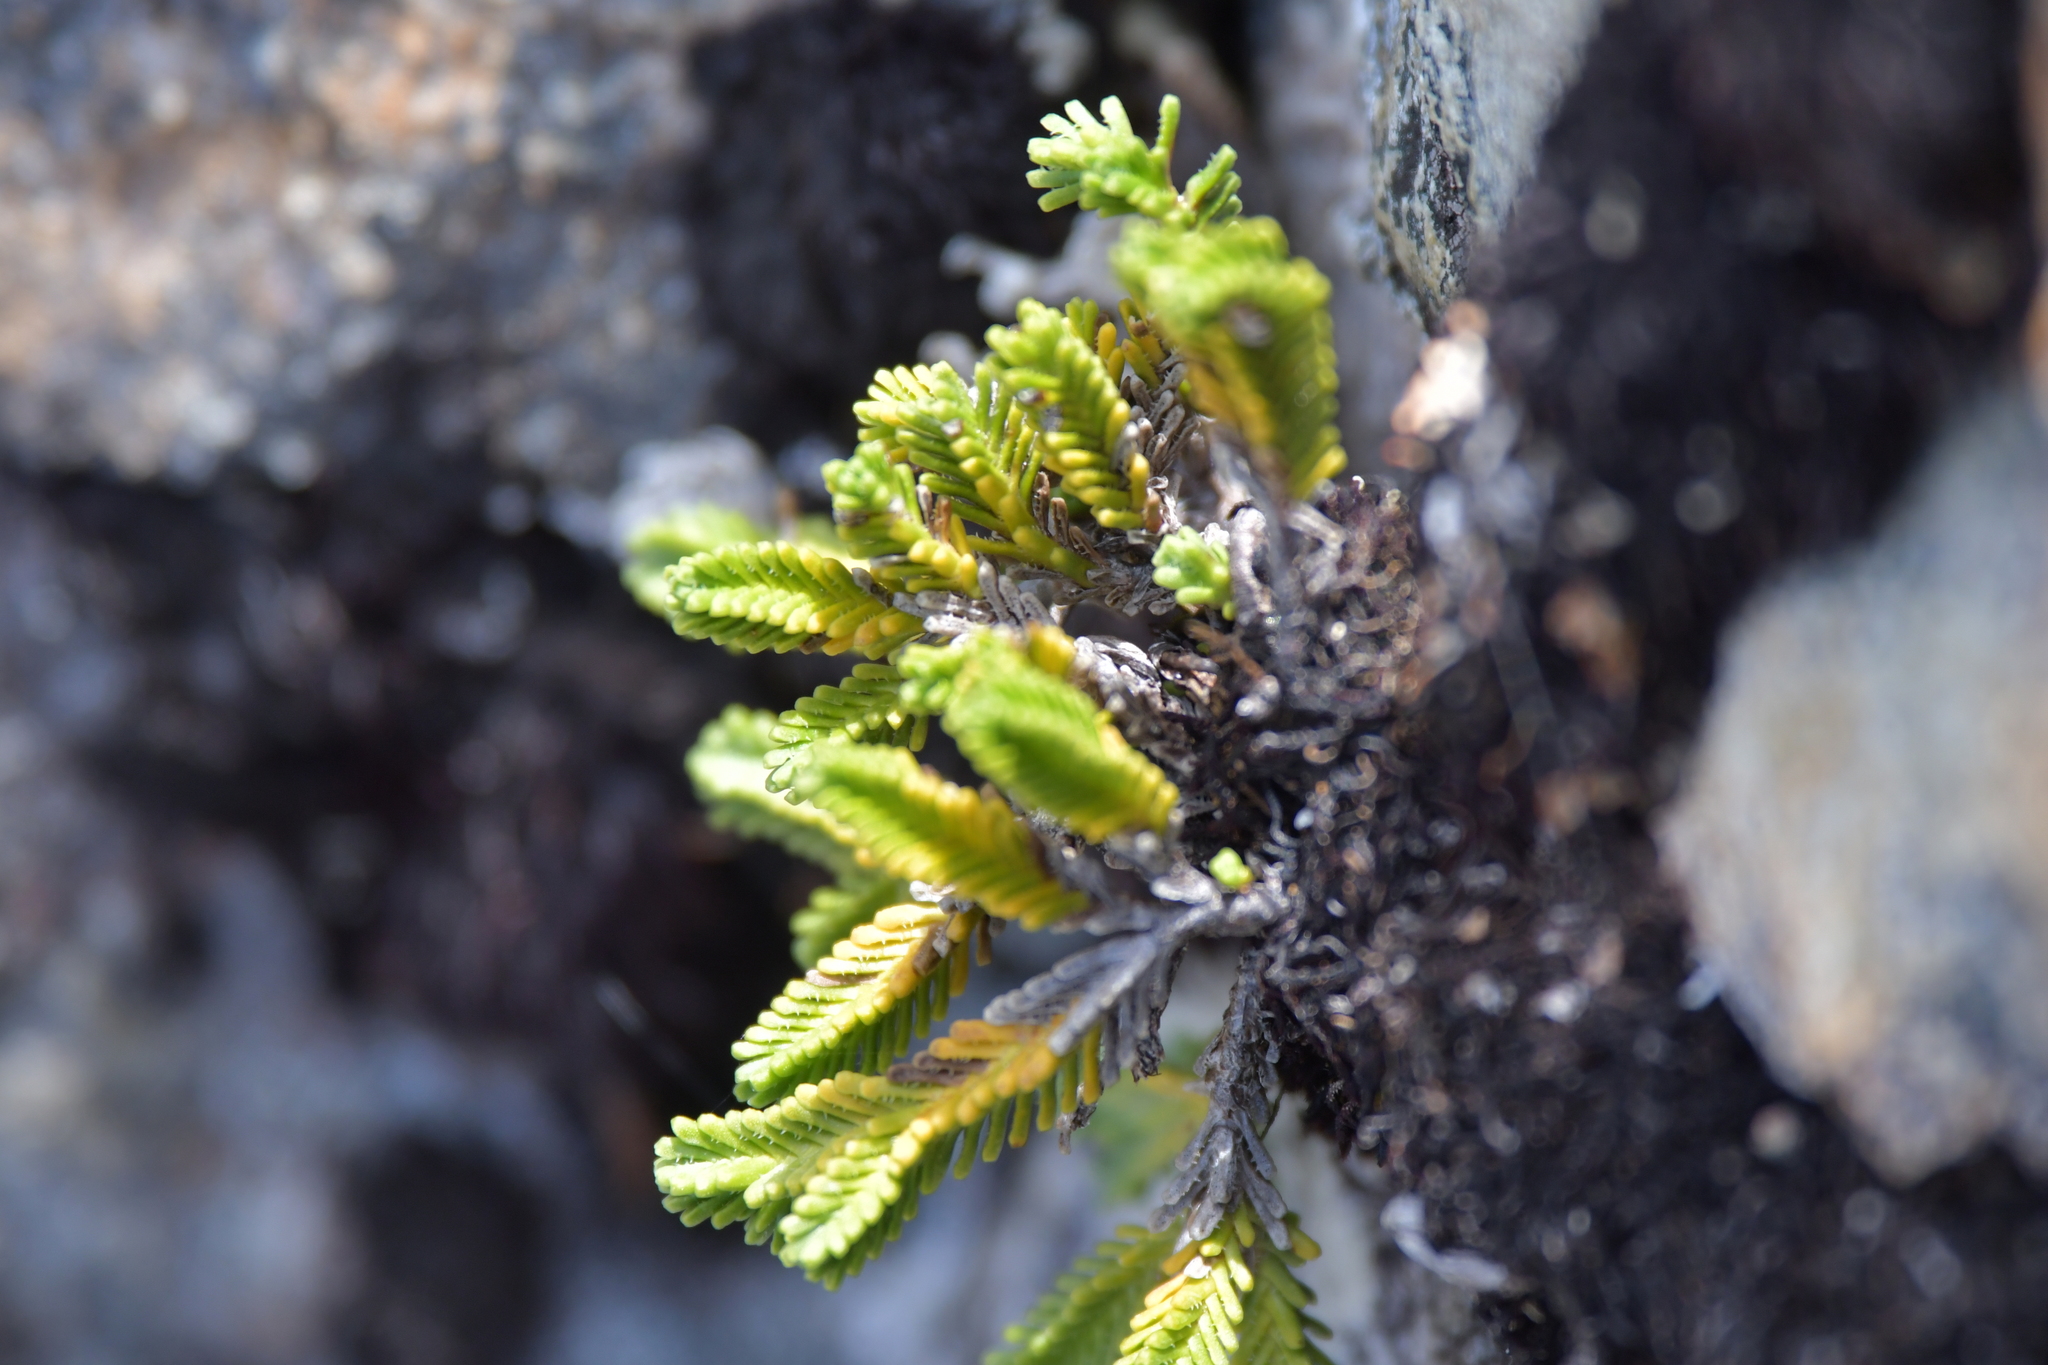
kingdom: Plantae
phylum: Tracheophyta
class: Magnoliopsida
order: Lamiales
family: Plantaginaceae
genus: Veronica
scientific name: Veronica hookeri
